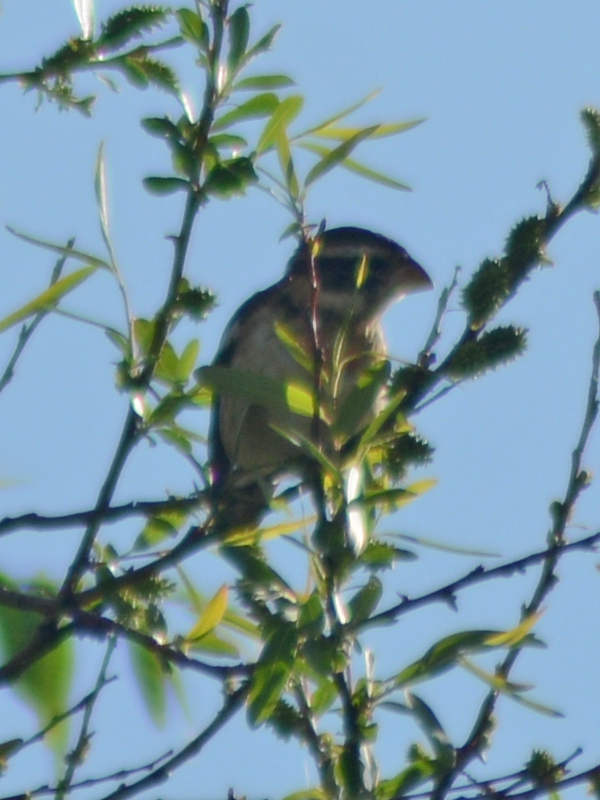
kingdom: Animalia
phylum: Chordata
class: Aves
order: Passeriformes
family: Cardinalidae
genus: Pheucticus
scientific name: Pheucticus melanocephalus
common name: Black-headed grosbeak
